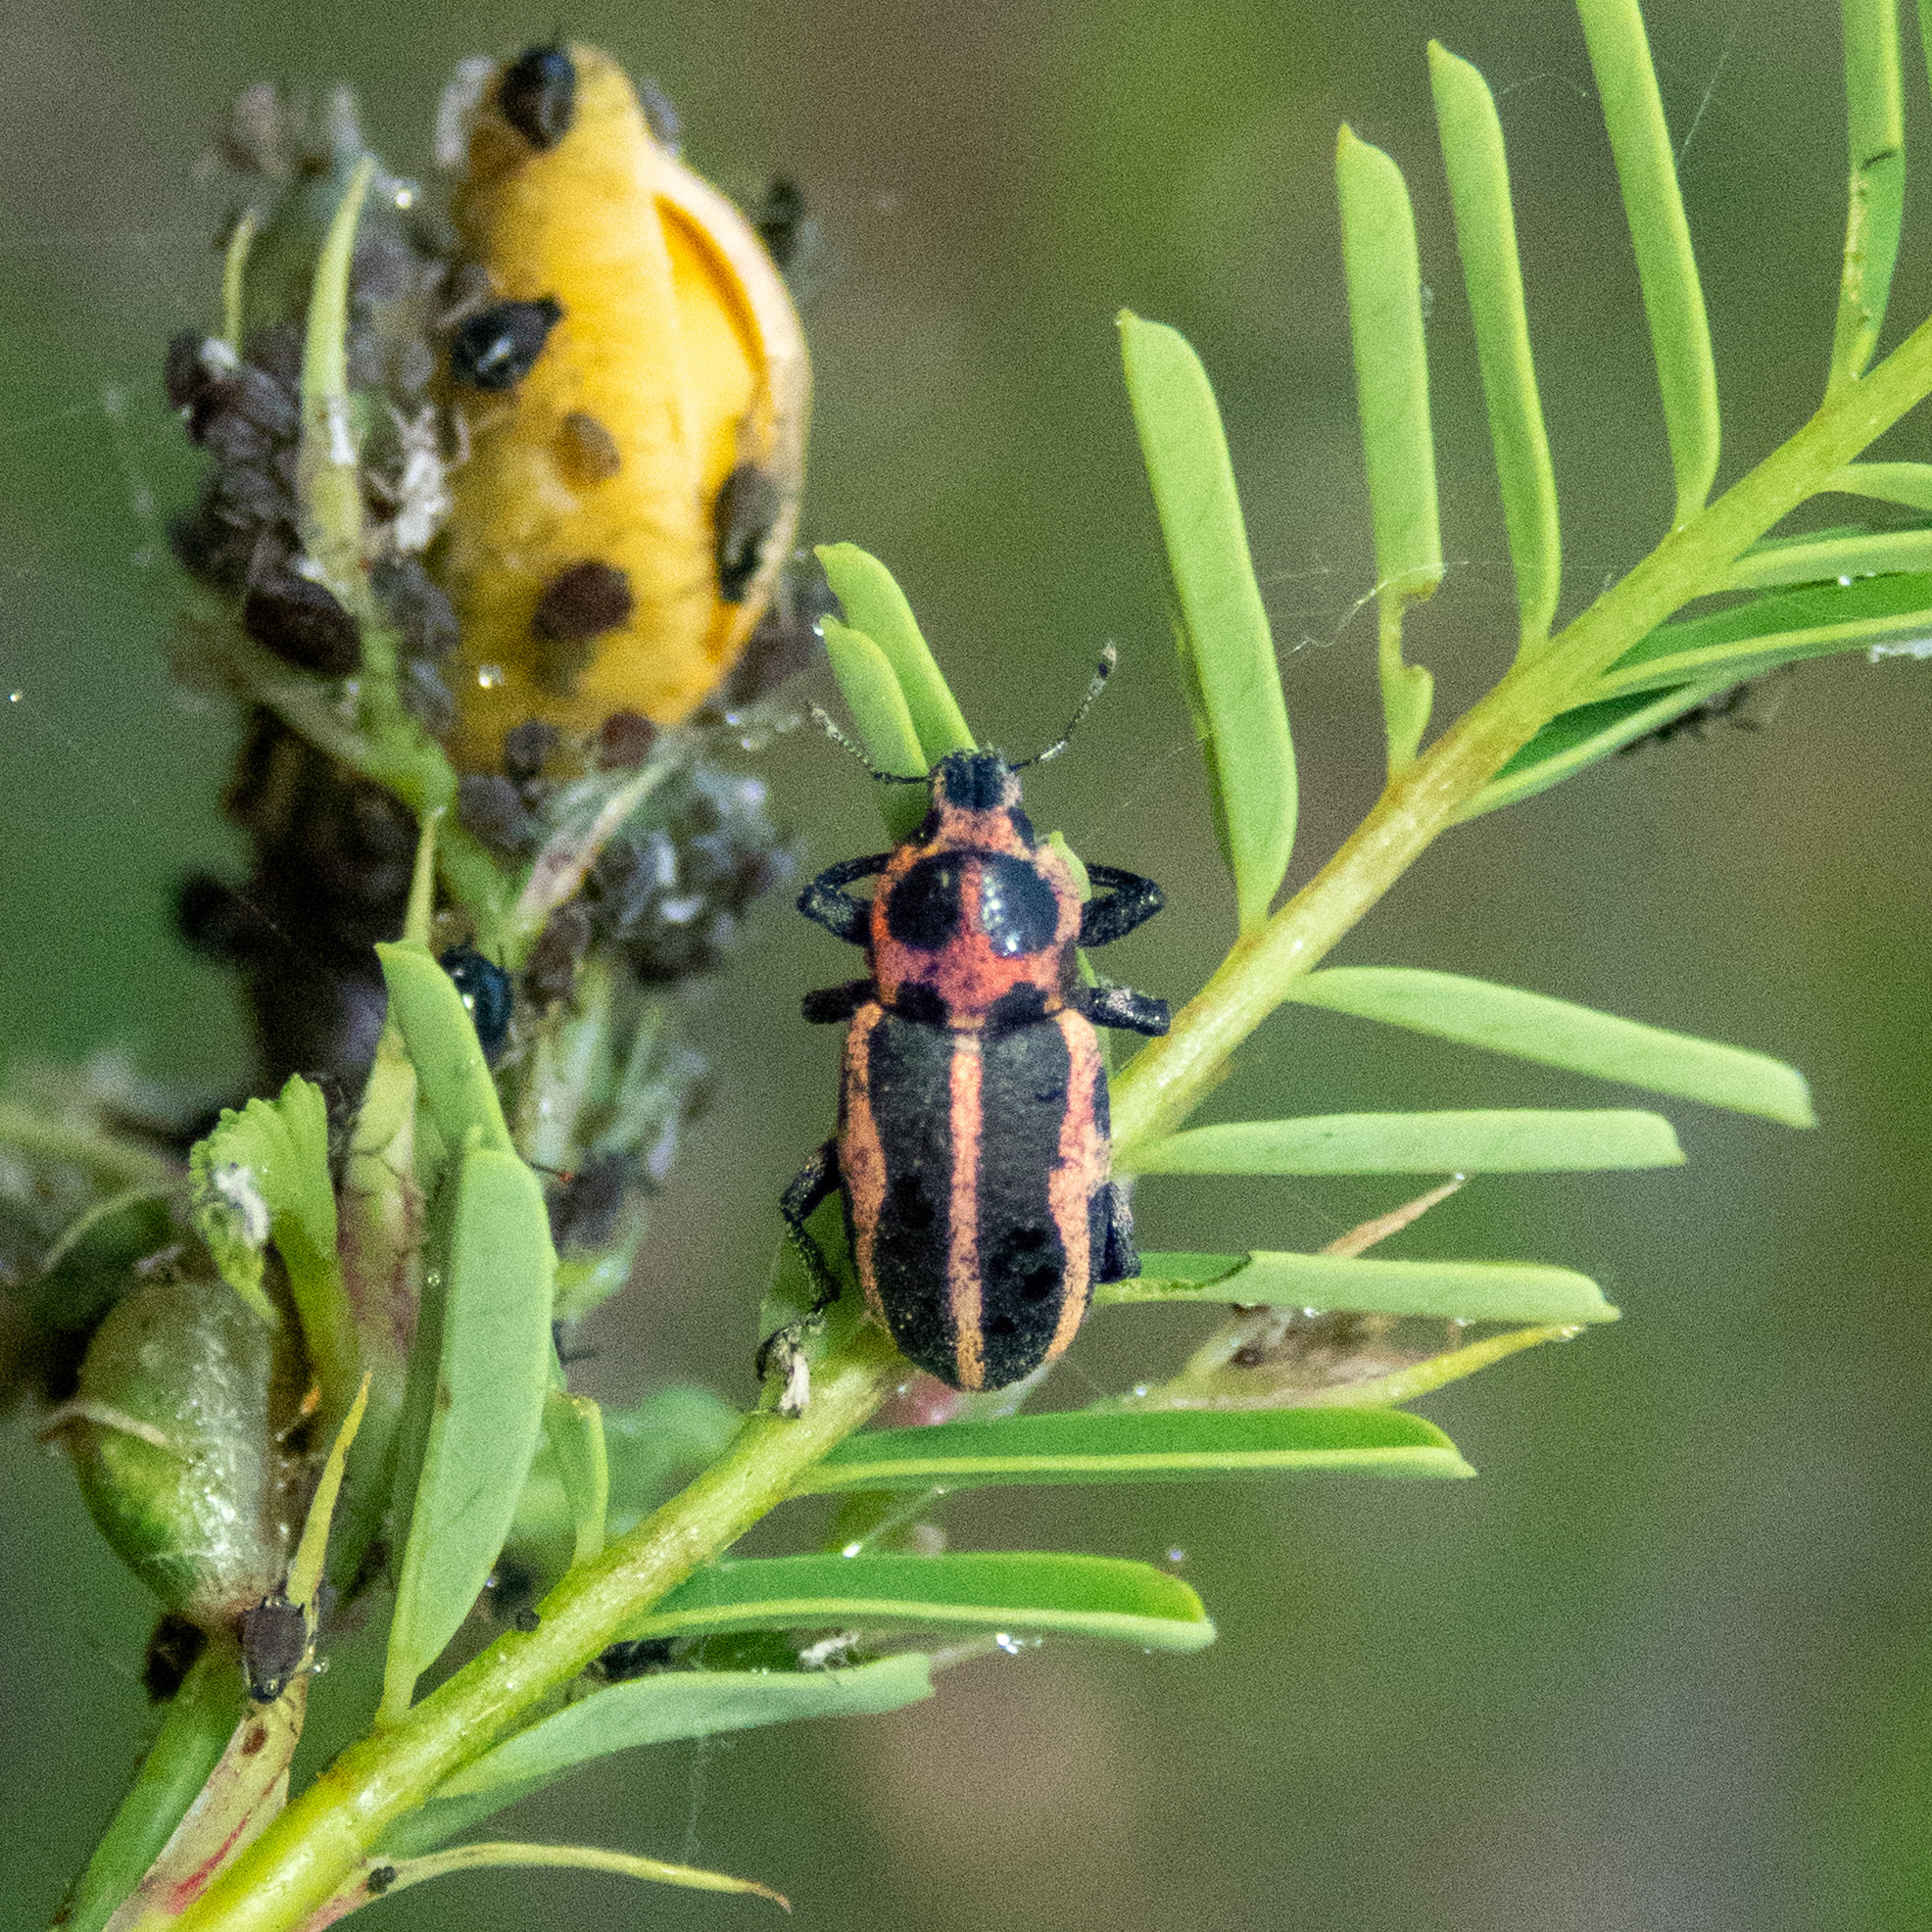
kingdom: Animalia
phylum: Arthropoda
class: Insecta
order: Coleoptera
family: Curculionidae
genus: Eudiagogus
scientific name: Eudiagogus pulcher
